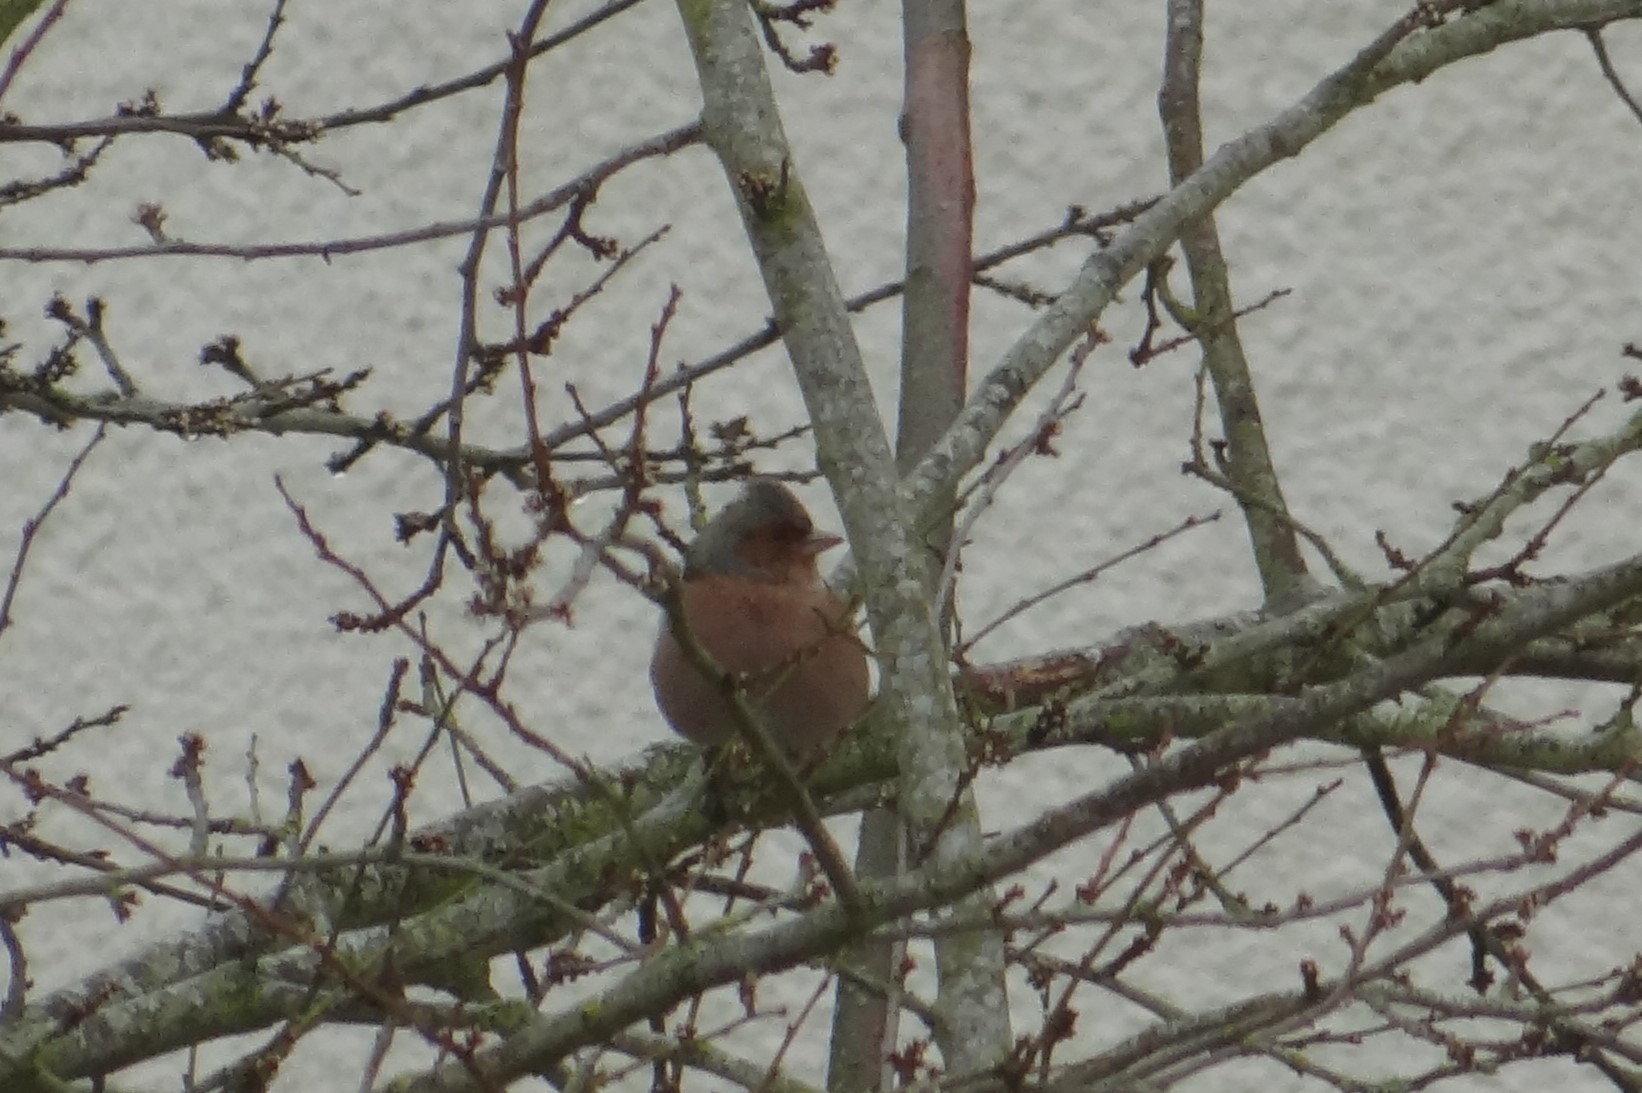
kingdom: Animalia
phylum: Chordata
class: Aves
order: Passeriformes
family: Fringillidae
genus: Fringilla
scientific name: Fringilla coelebs
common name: Common chaffinch
